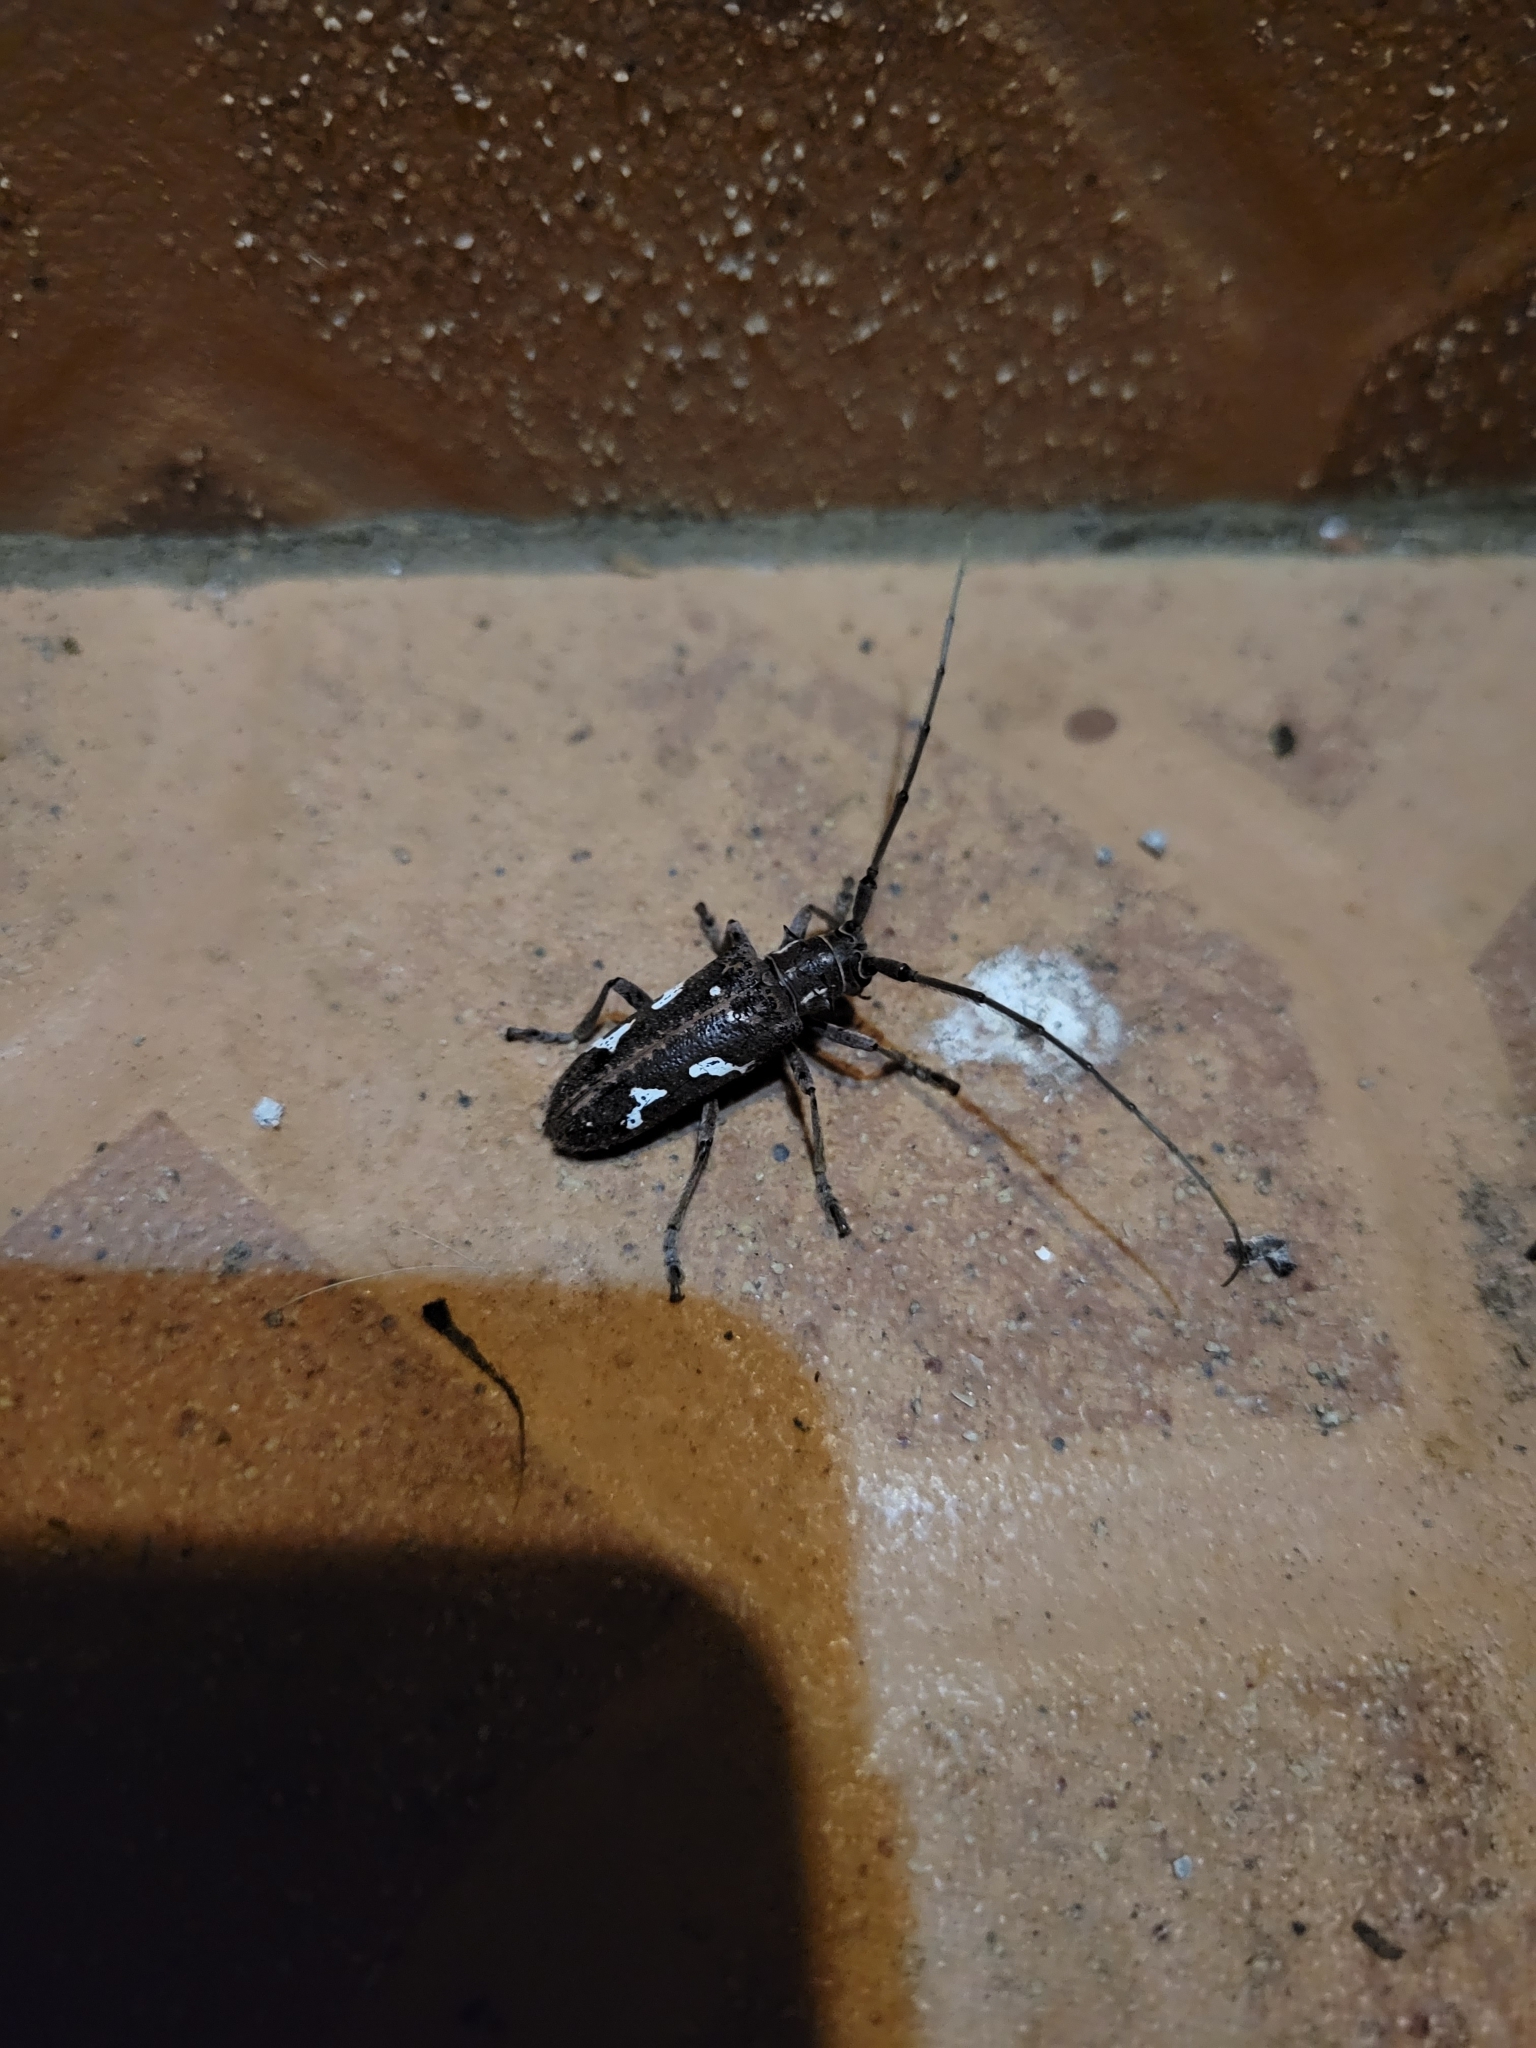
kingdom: Animalia
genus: Hammatoderus
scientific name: Hammatoderus thoracicus
